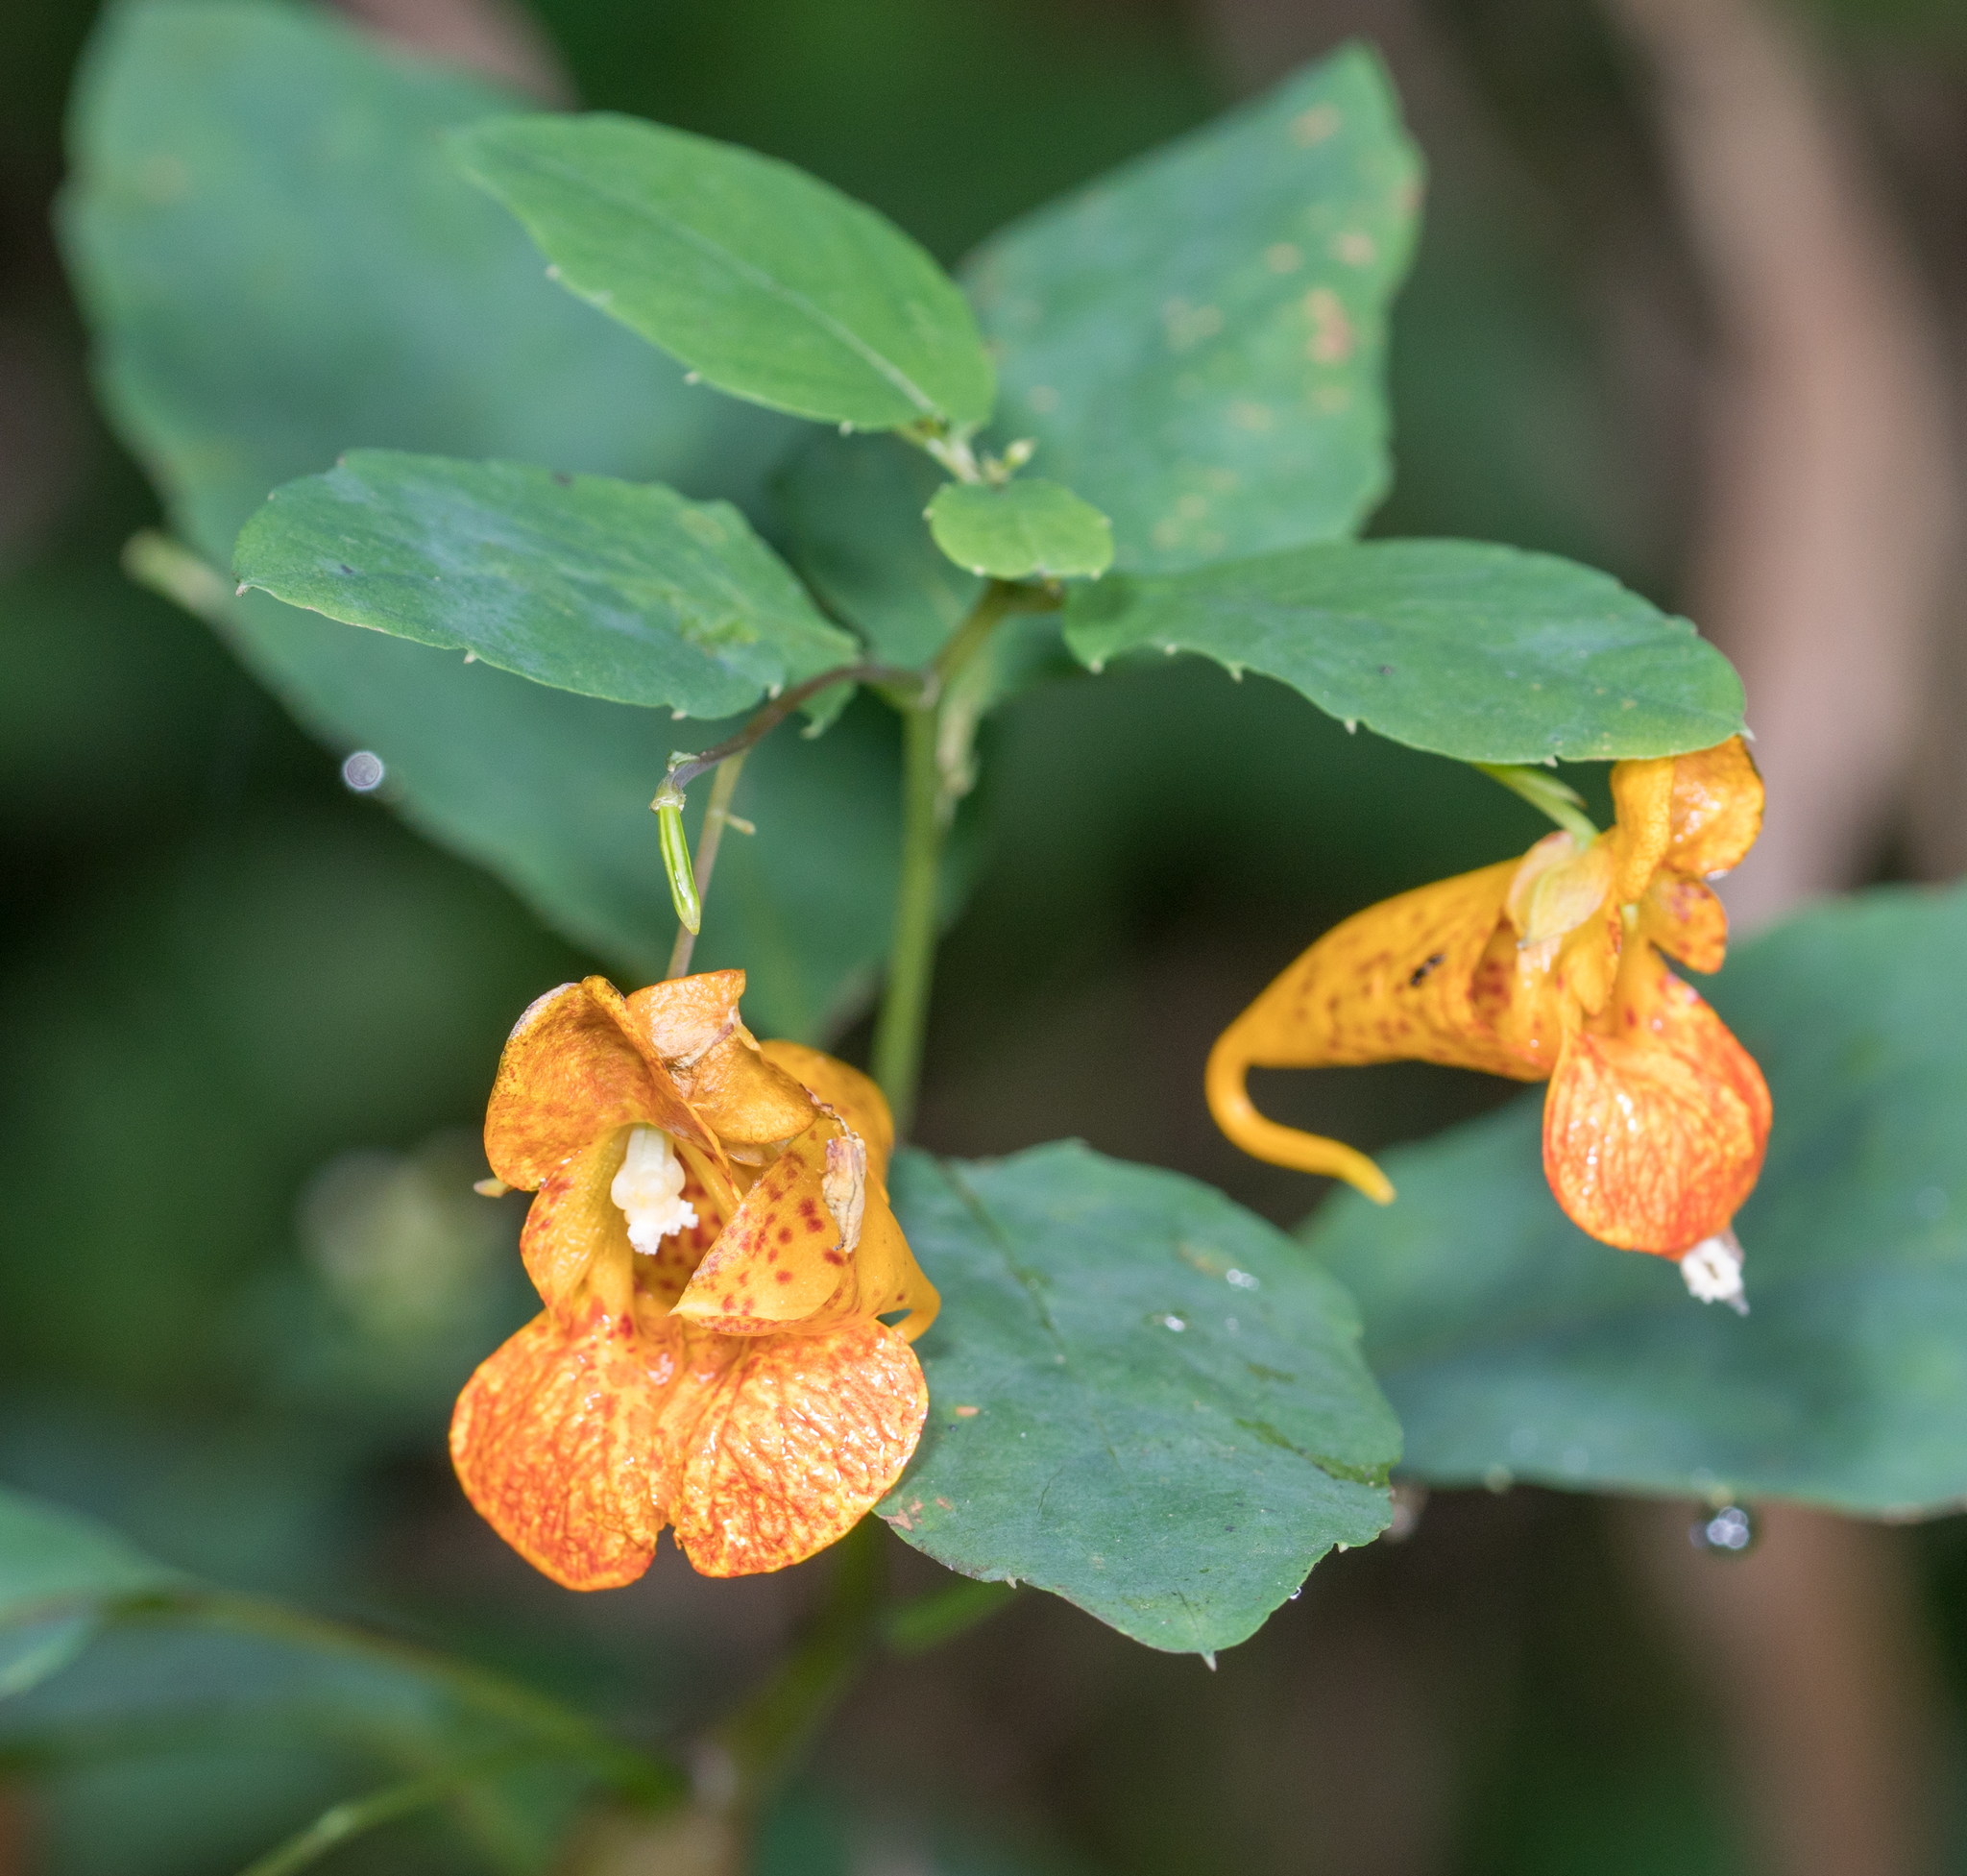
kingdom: Plantae
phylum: Tracheophyta
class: Magnoliopsida
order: Ericales
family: Balsaminaceae
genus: Impatiens
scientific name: Impatiens capensis
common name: Orange balsam
